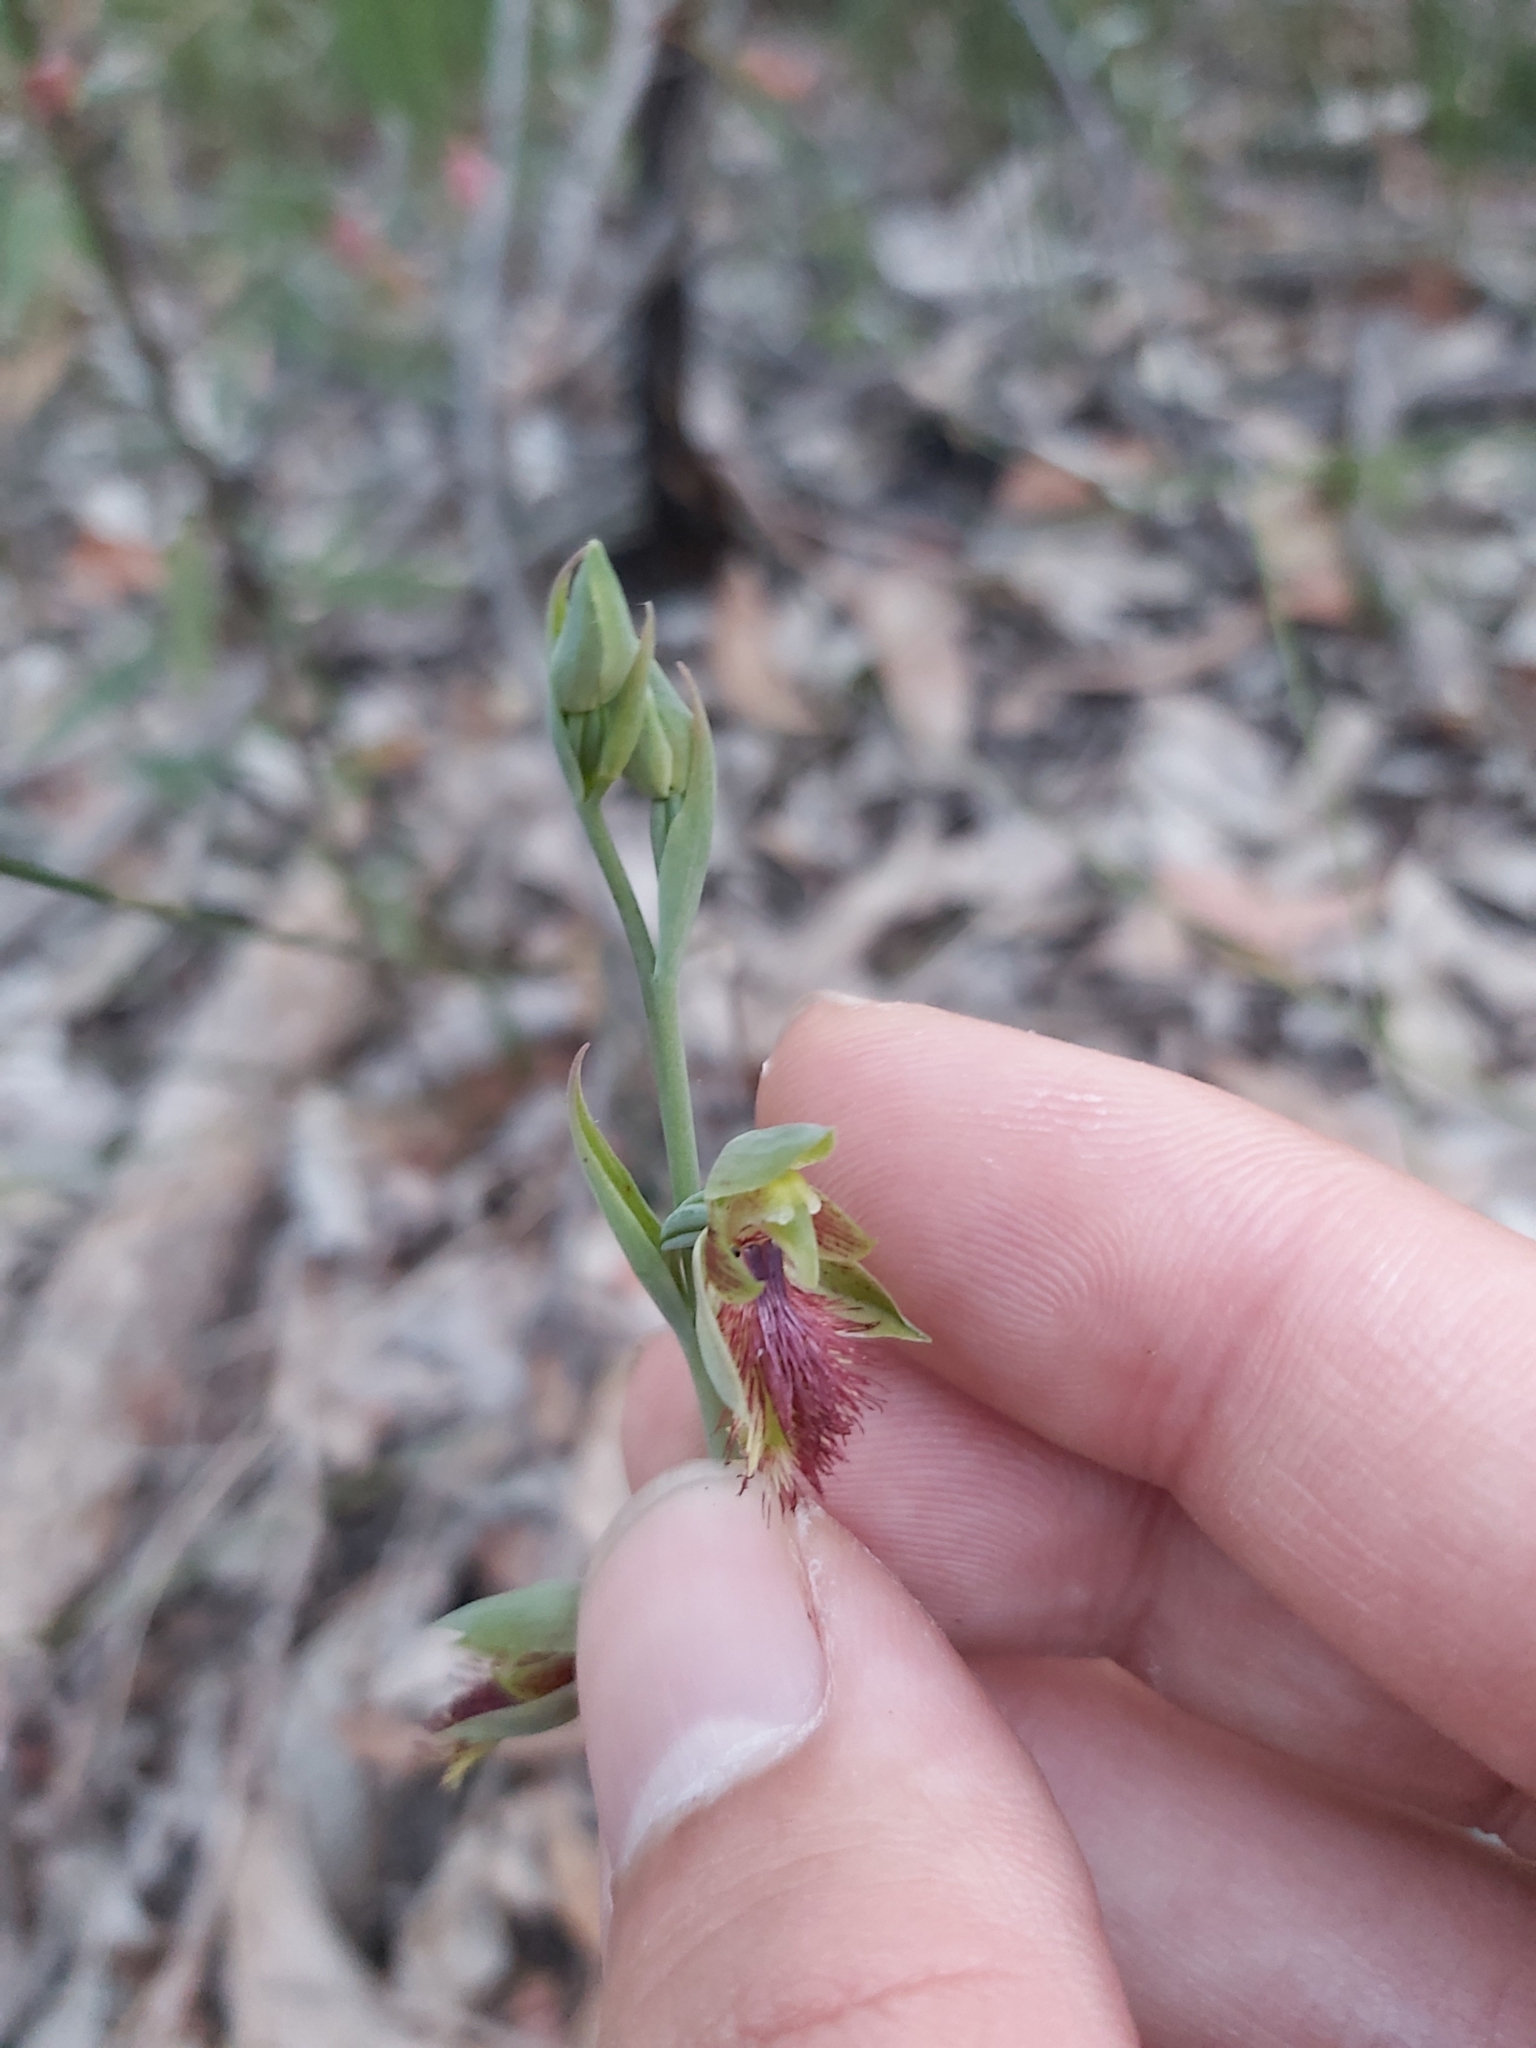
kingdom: Plantae
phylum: Tracheophyta
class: Liliopsida
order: Asparagales
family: Orchidaceae
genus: Calochilus
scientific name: Calochilus campestris
